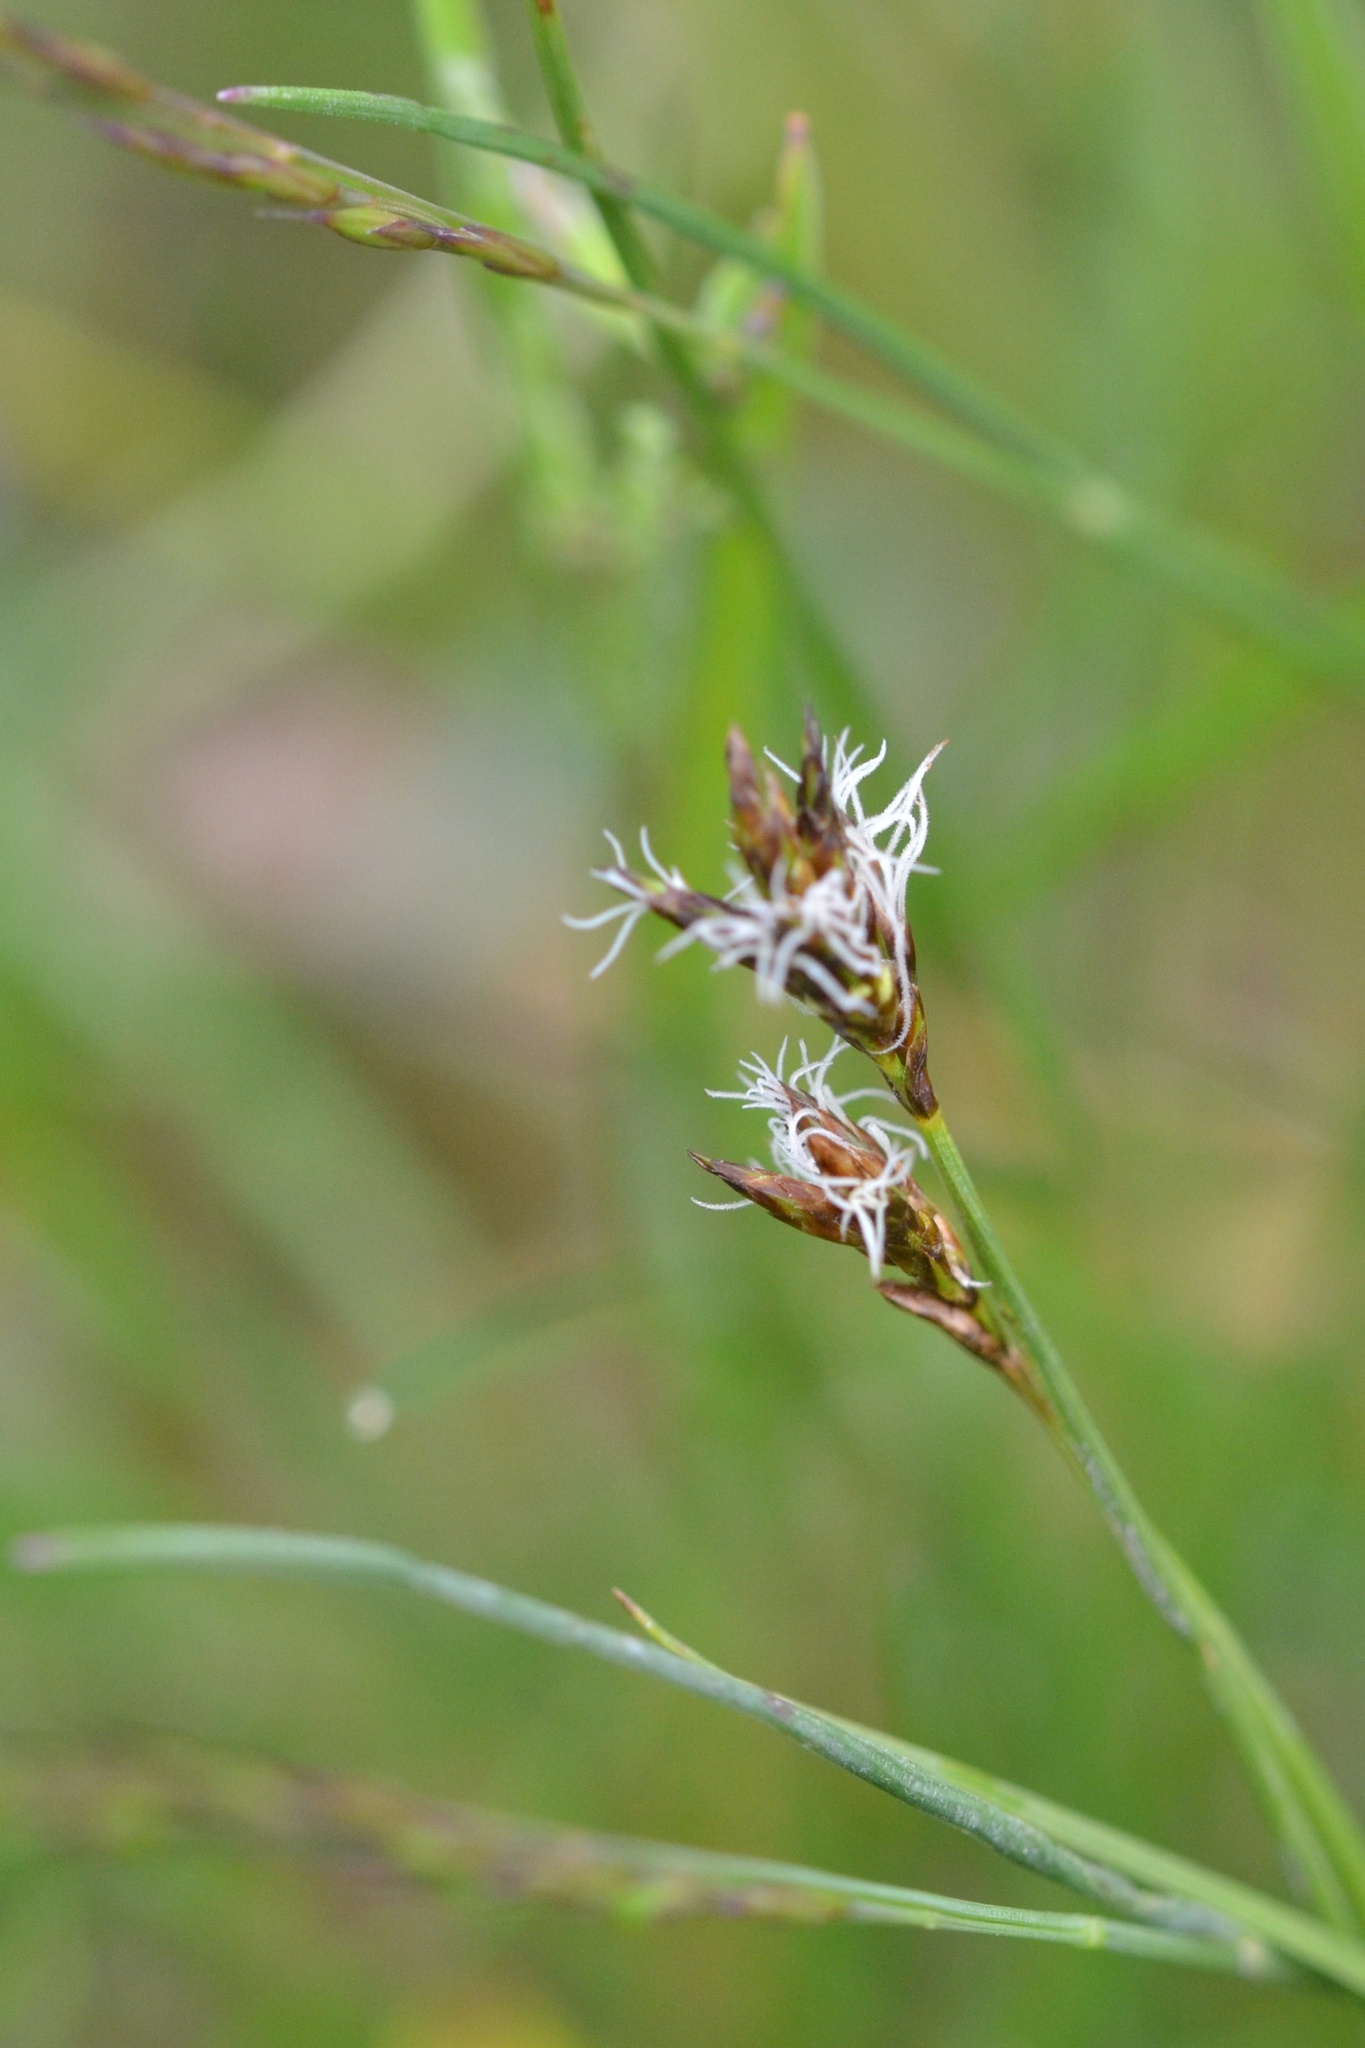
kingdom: Plantae
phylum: Tracheophyta
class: Liliopsida
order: Poales
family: Cyperaceae
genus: Carex
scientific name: Carex praecox
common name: Early sedge
